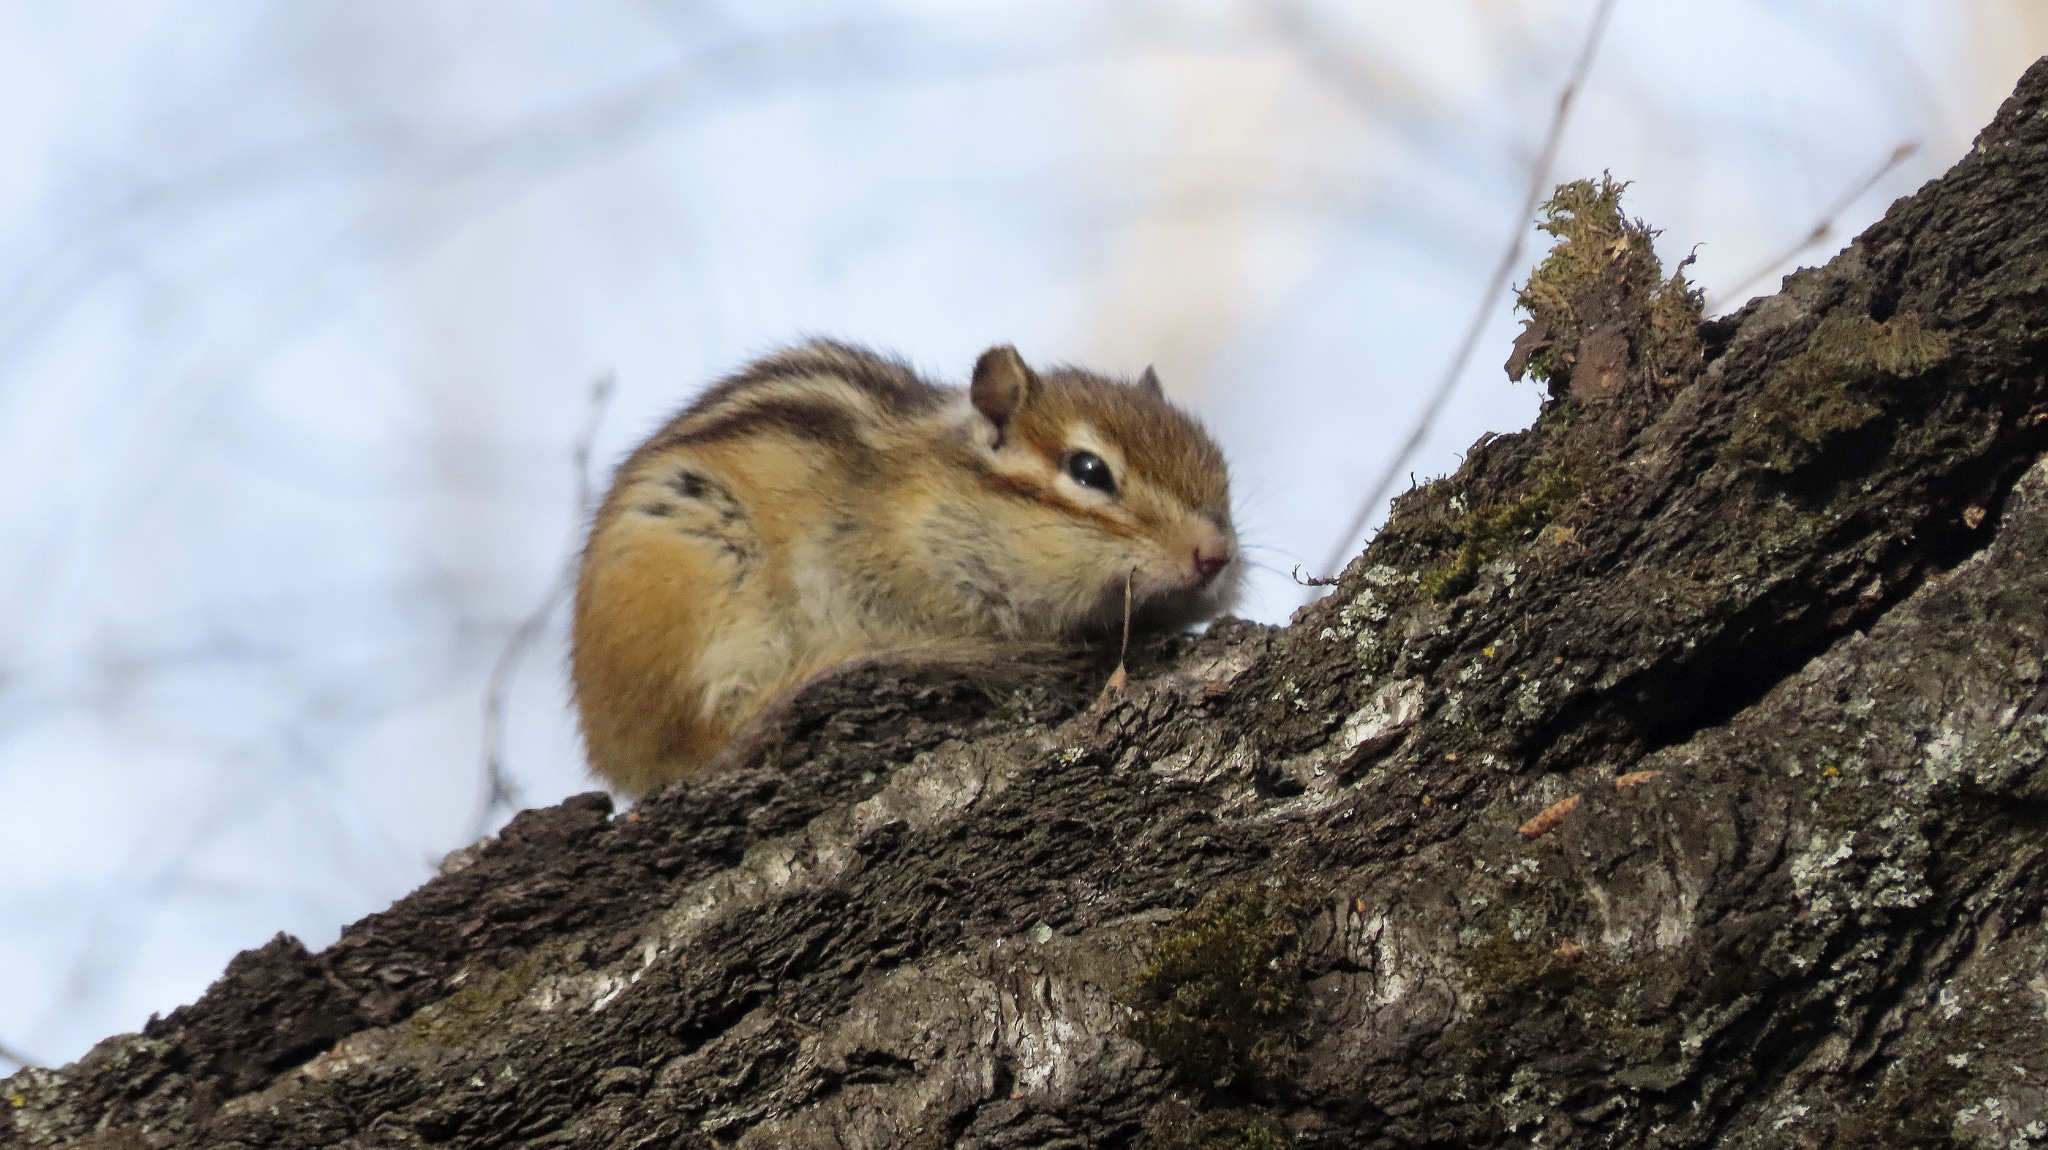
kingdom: Animalia
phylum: Chordata
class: Mammalia
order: Rodentia
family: Sciuridae
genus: Tamias
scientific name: Tamias sibiricus
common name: Siberian chipmunk
